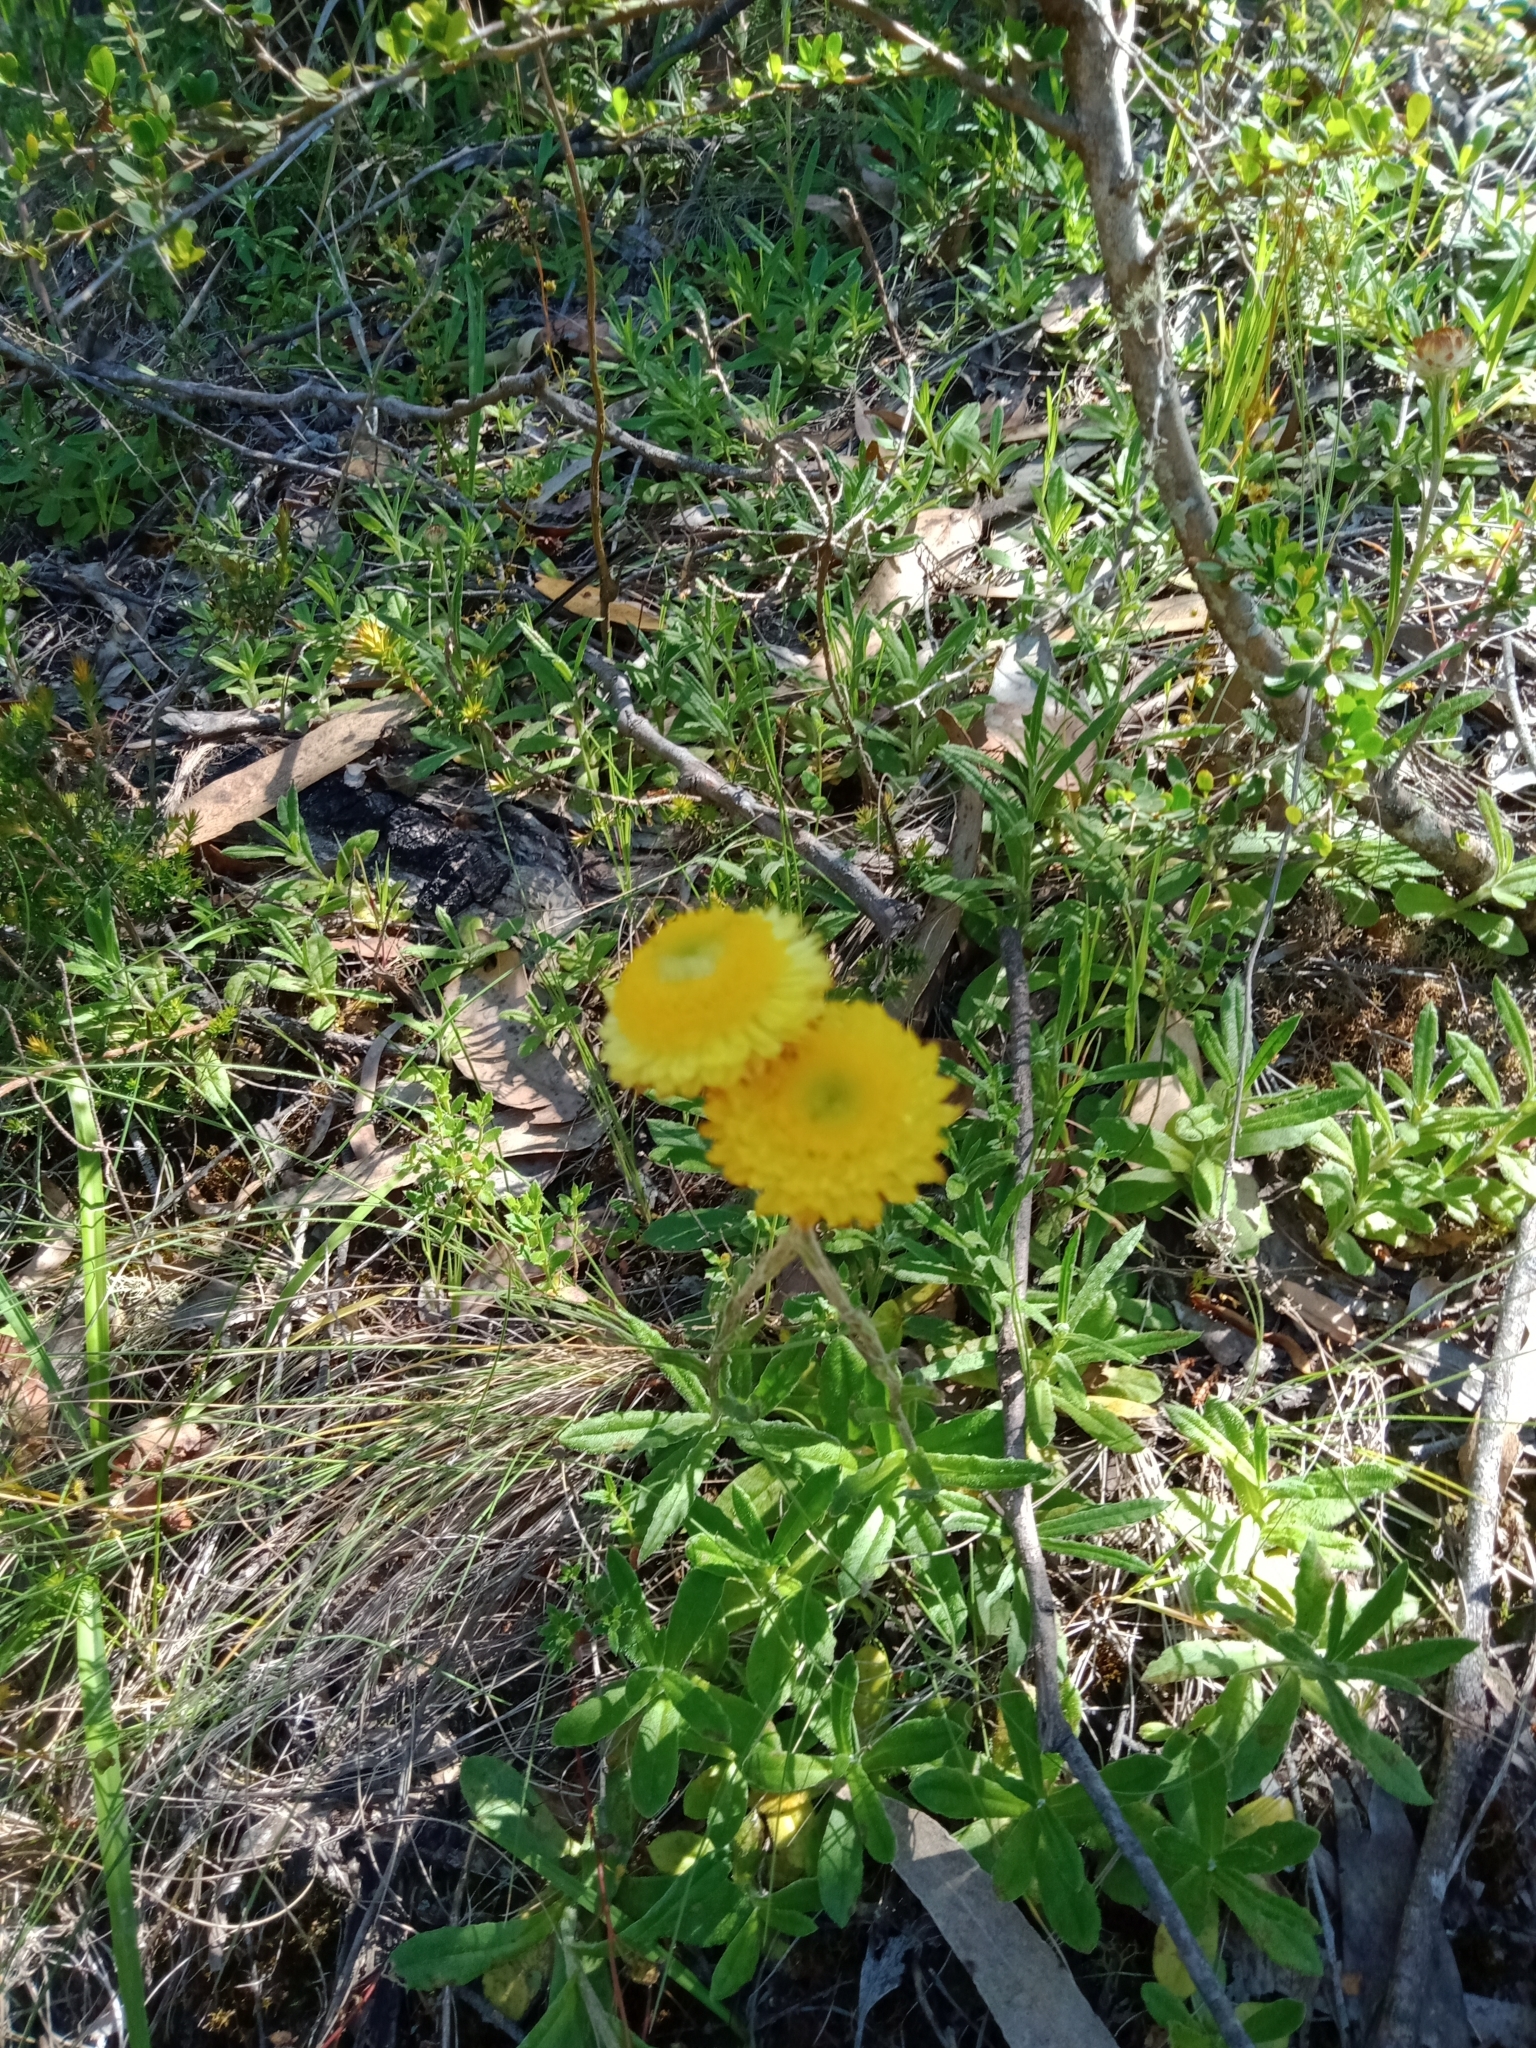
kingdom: Plantae
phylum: Tracheophyta
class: Magnoliopsida
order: Asterales
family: Asteraceae
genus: Coronidium
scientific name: Coronidium scorpioides
